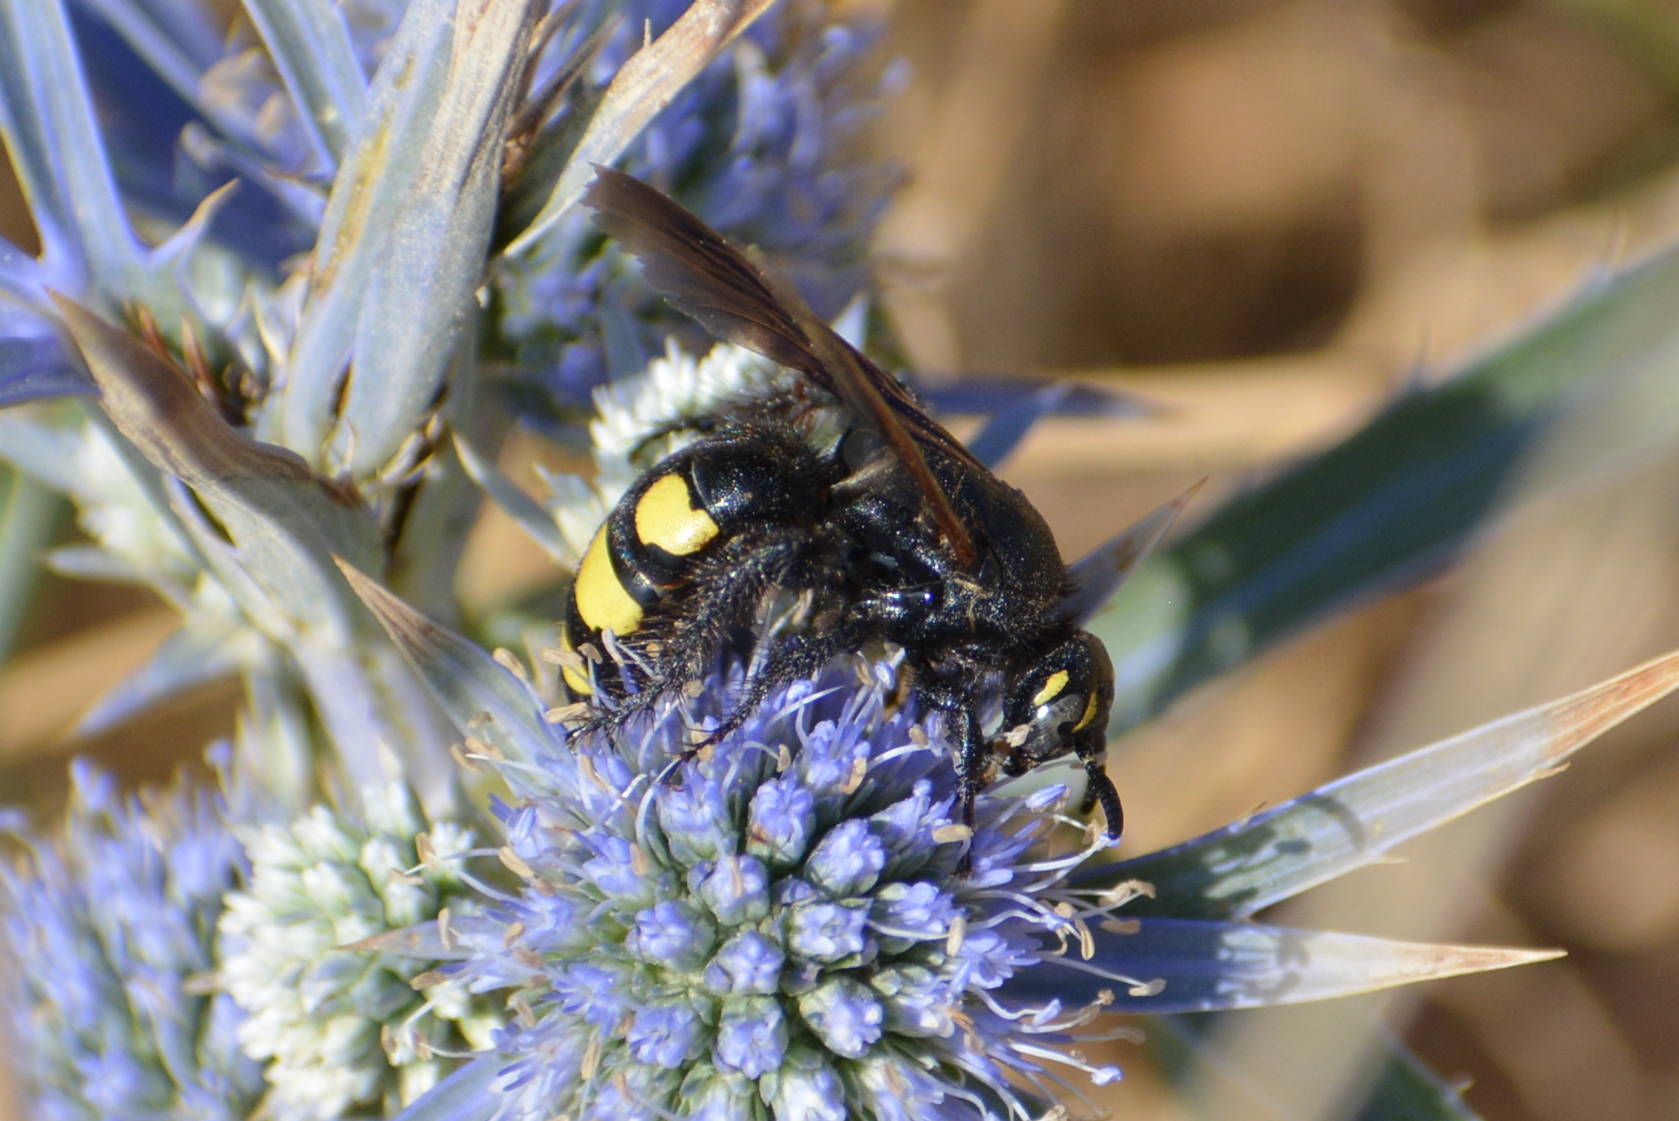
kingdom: Animalia
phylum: Arthropoda
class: Insecta
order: Hymenoptera
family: Vespidae
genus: Vespa
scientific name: Vespa sexmaculata
